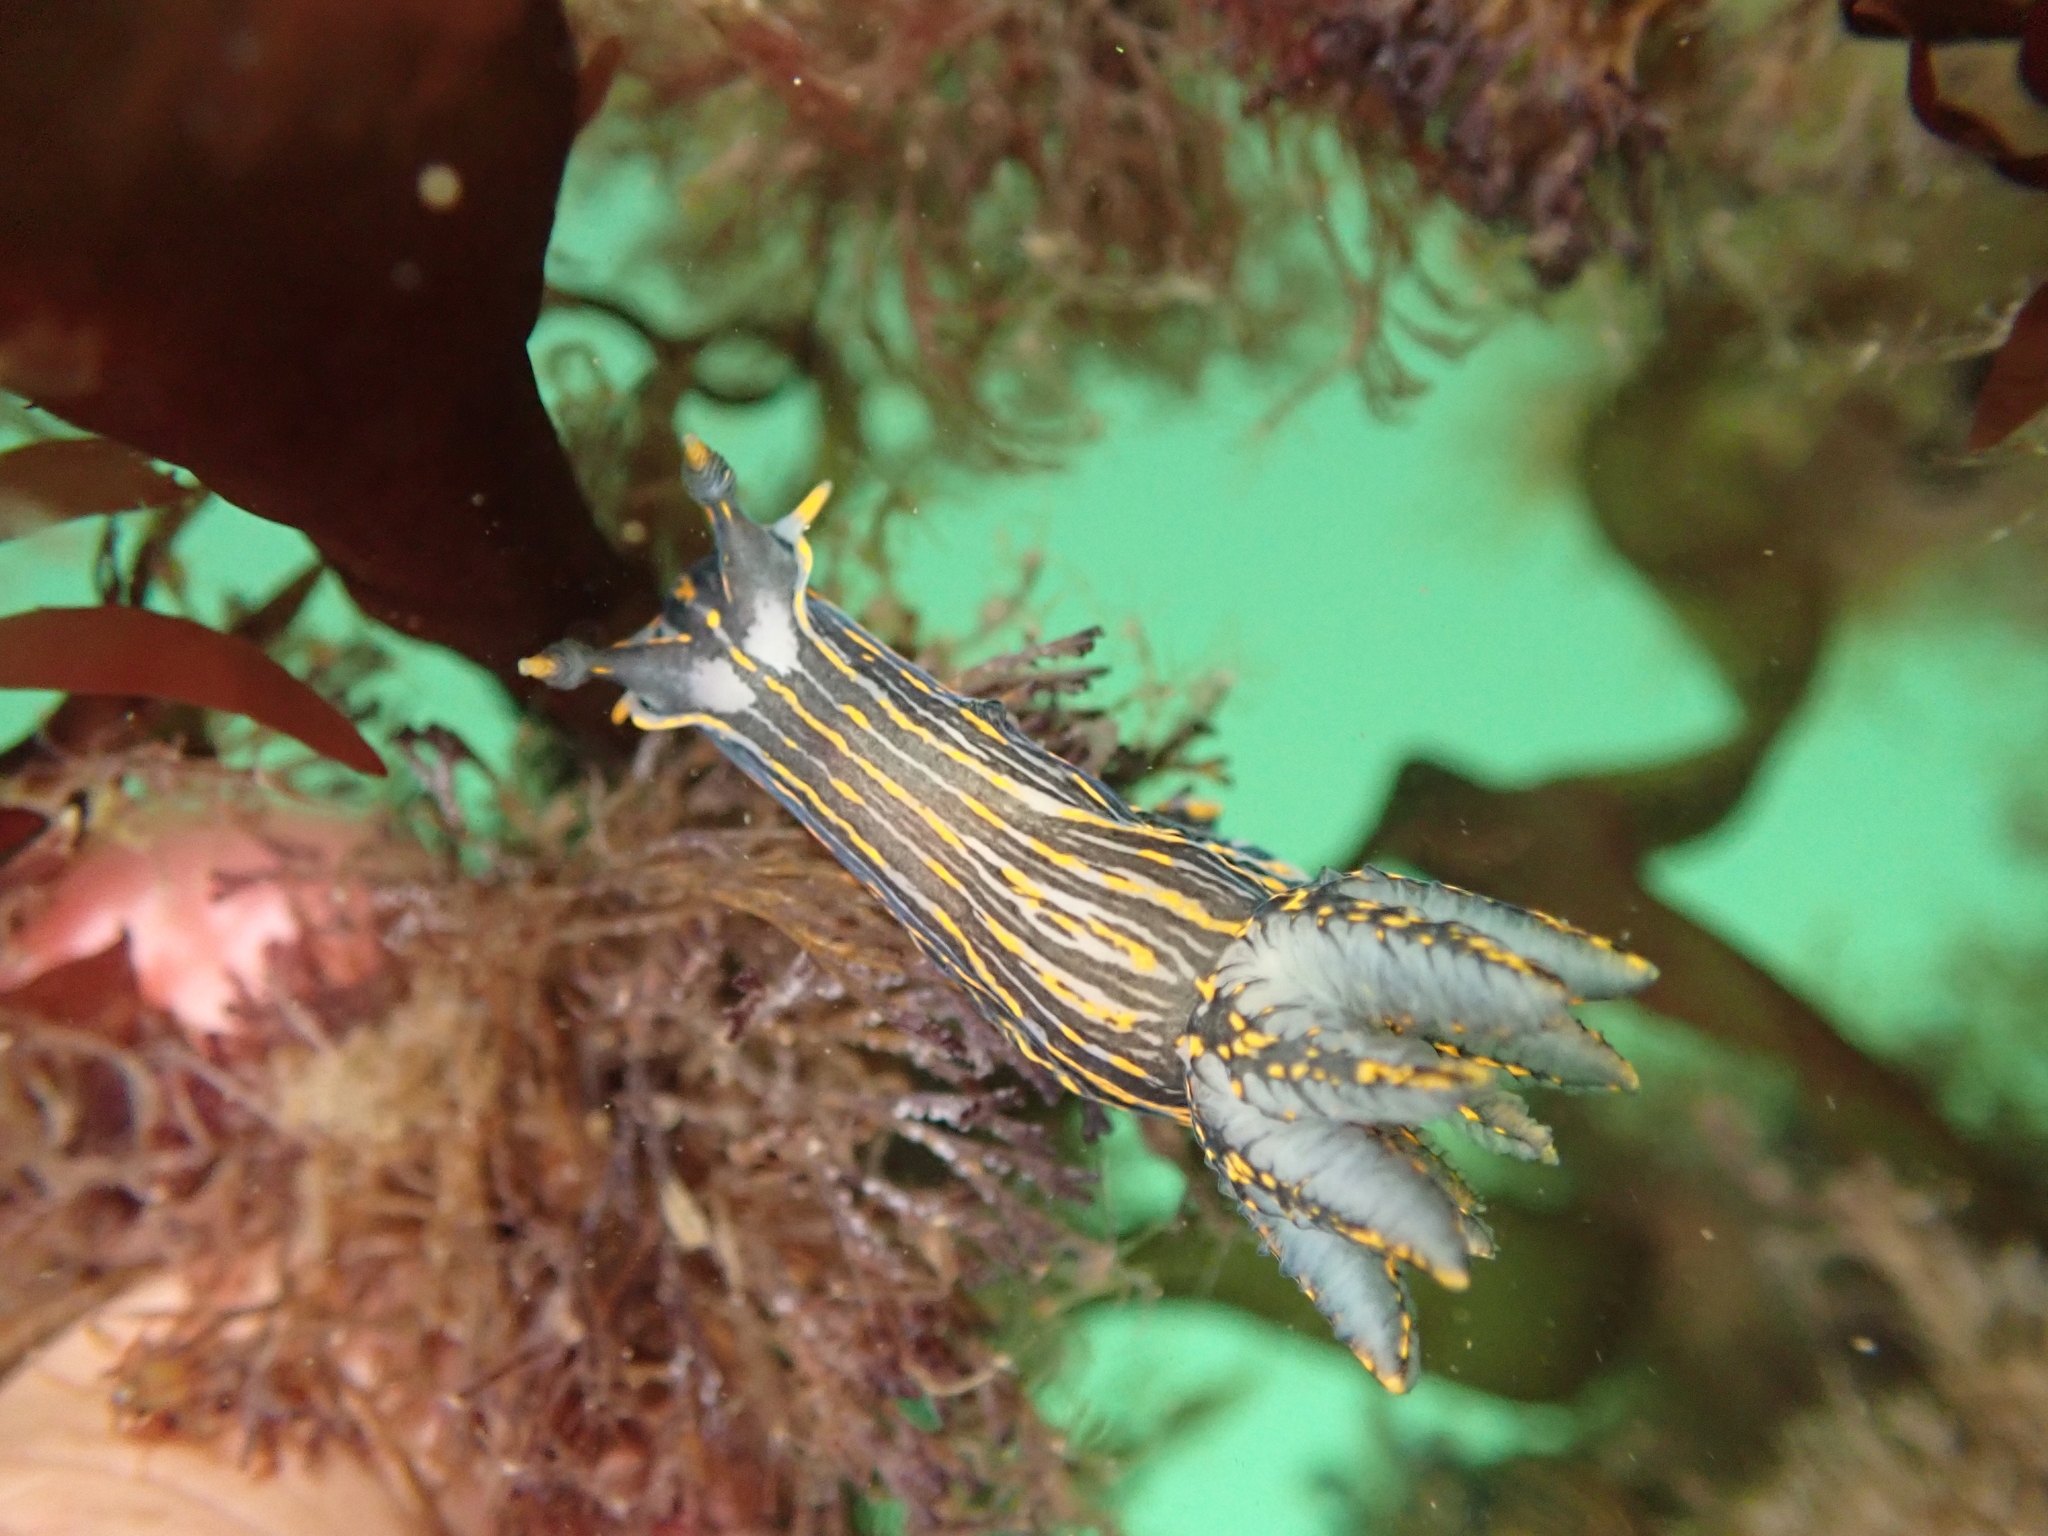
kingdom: Animalia
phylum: Mollusca
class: Gastropoda
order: Nudibranchia
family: Polyceridae
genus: Polycera
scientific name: Polycera atra
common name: Orange-spike polycera
